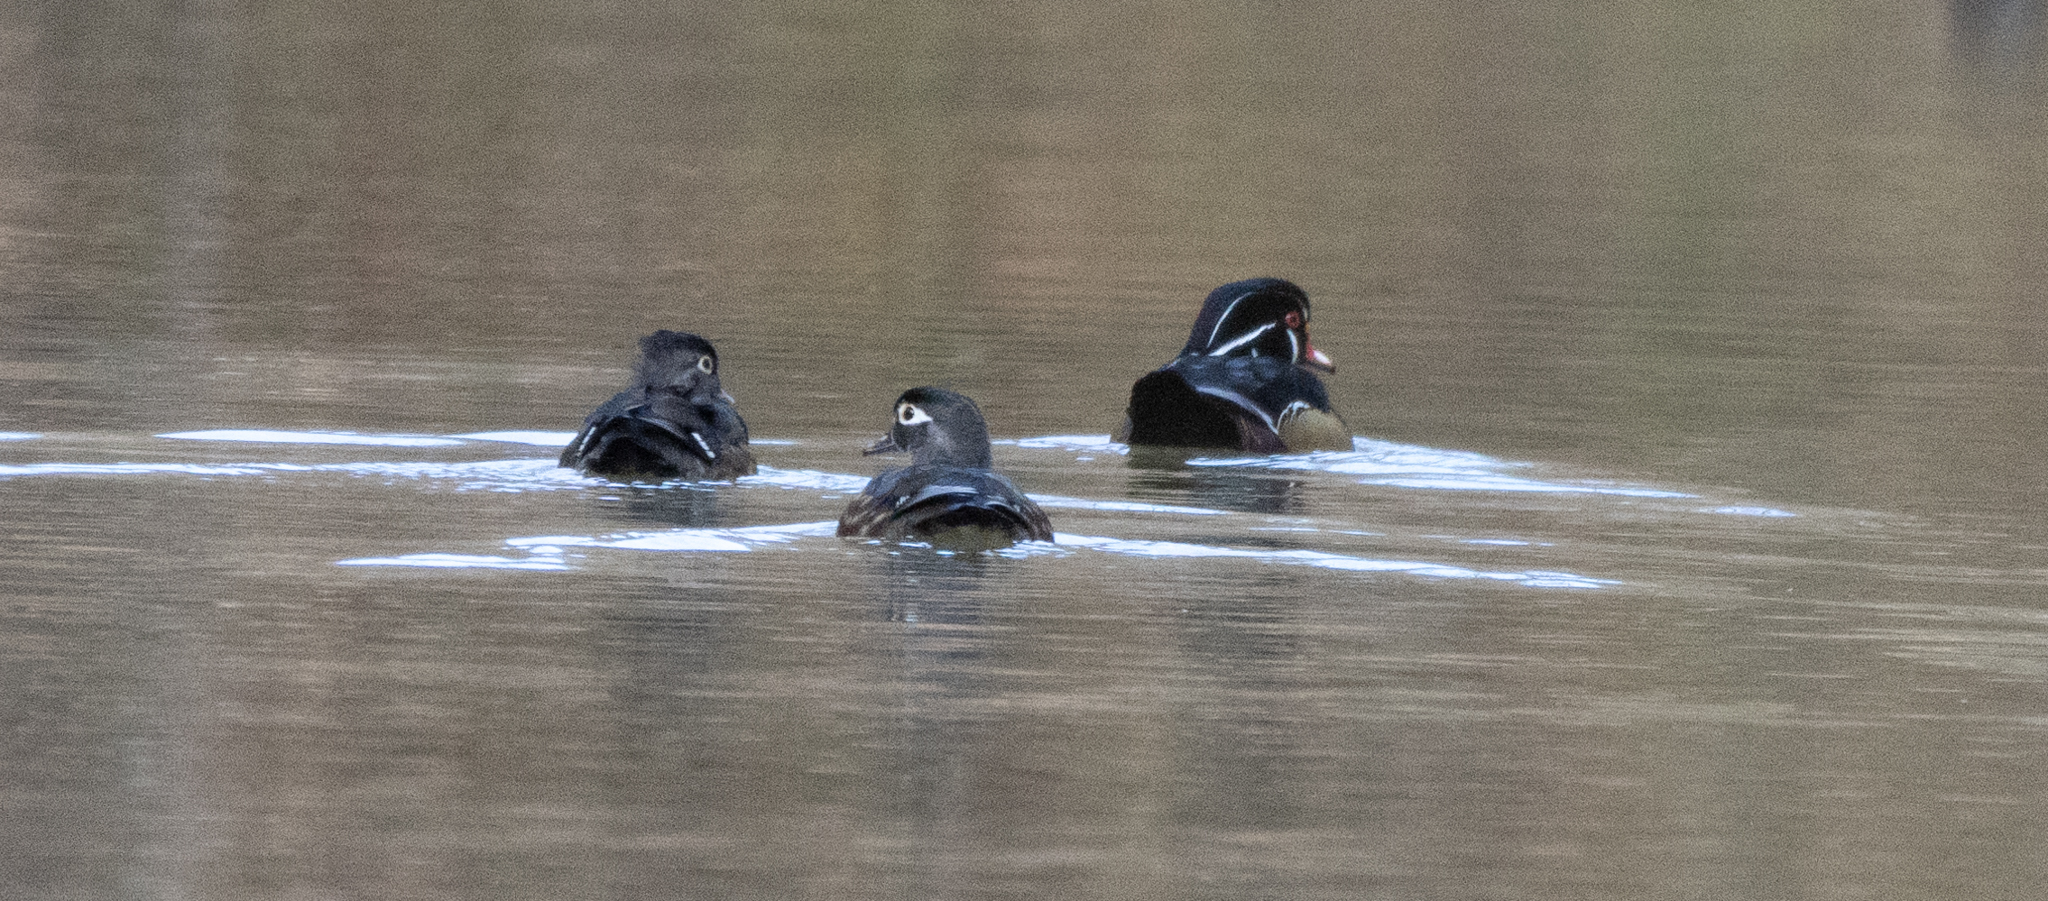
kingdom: Animalia
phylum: Chordata
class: Aves
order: Anseriformes
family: Anatidae
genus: Aix
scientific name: Aix sponsa
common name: Wood duck
